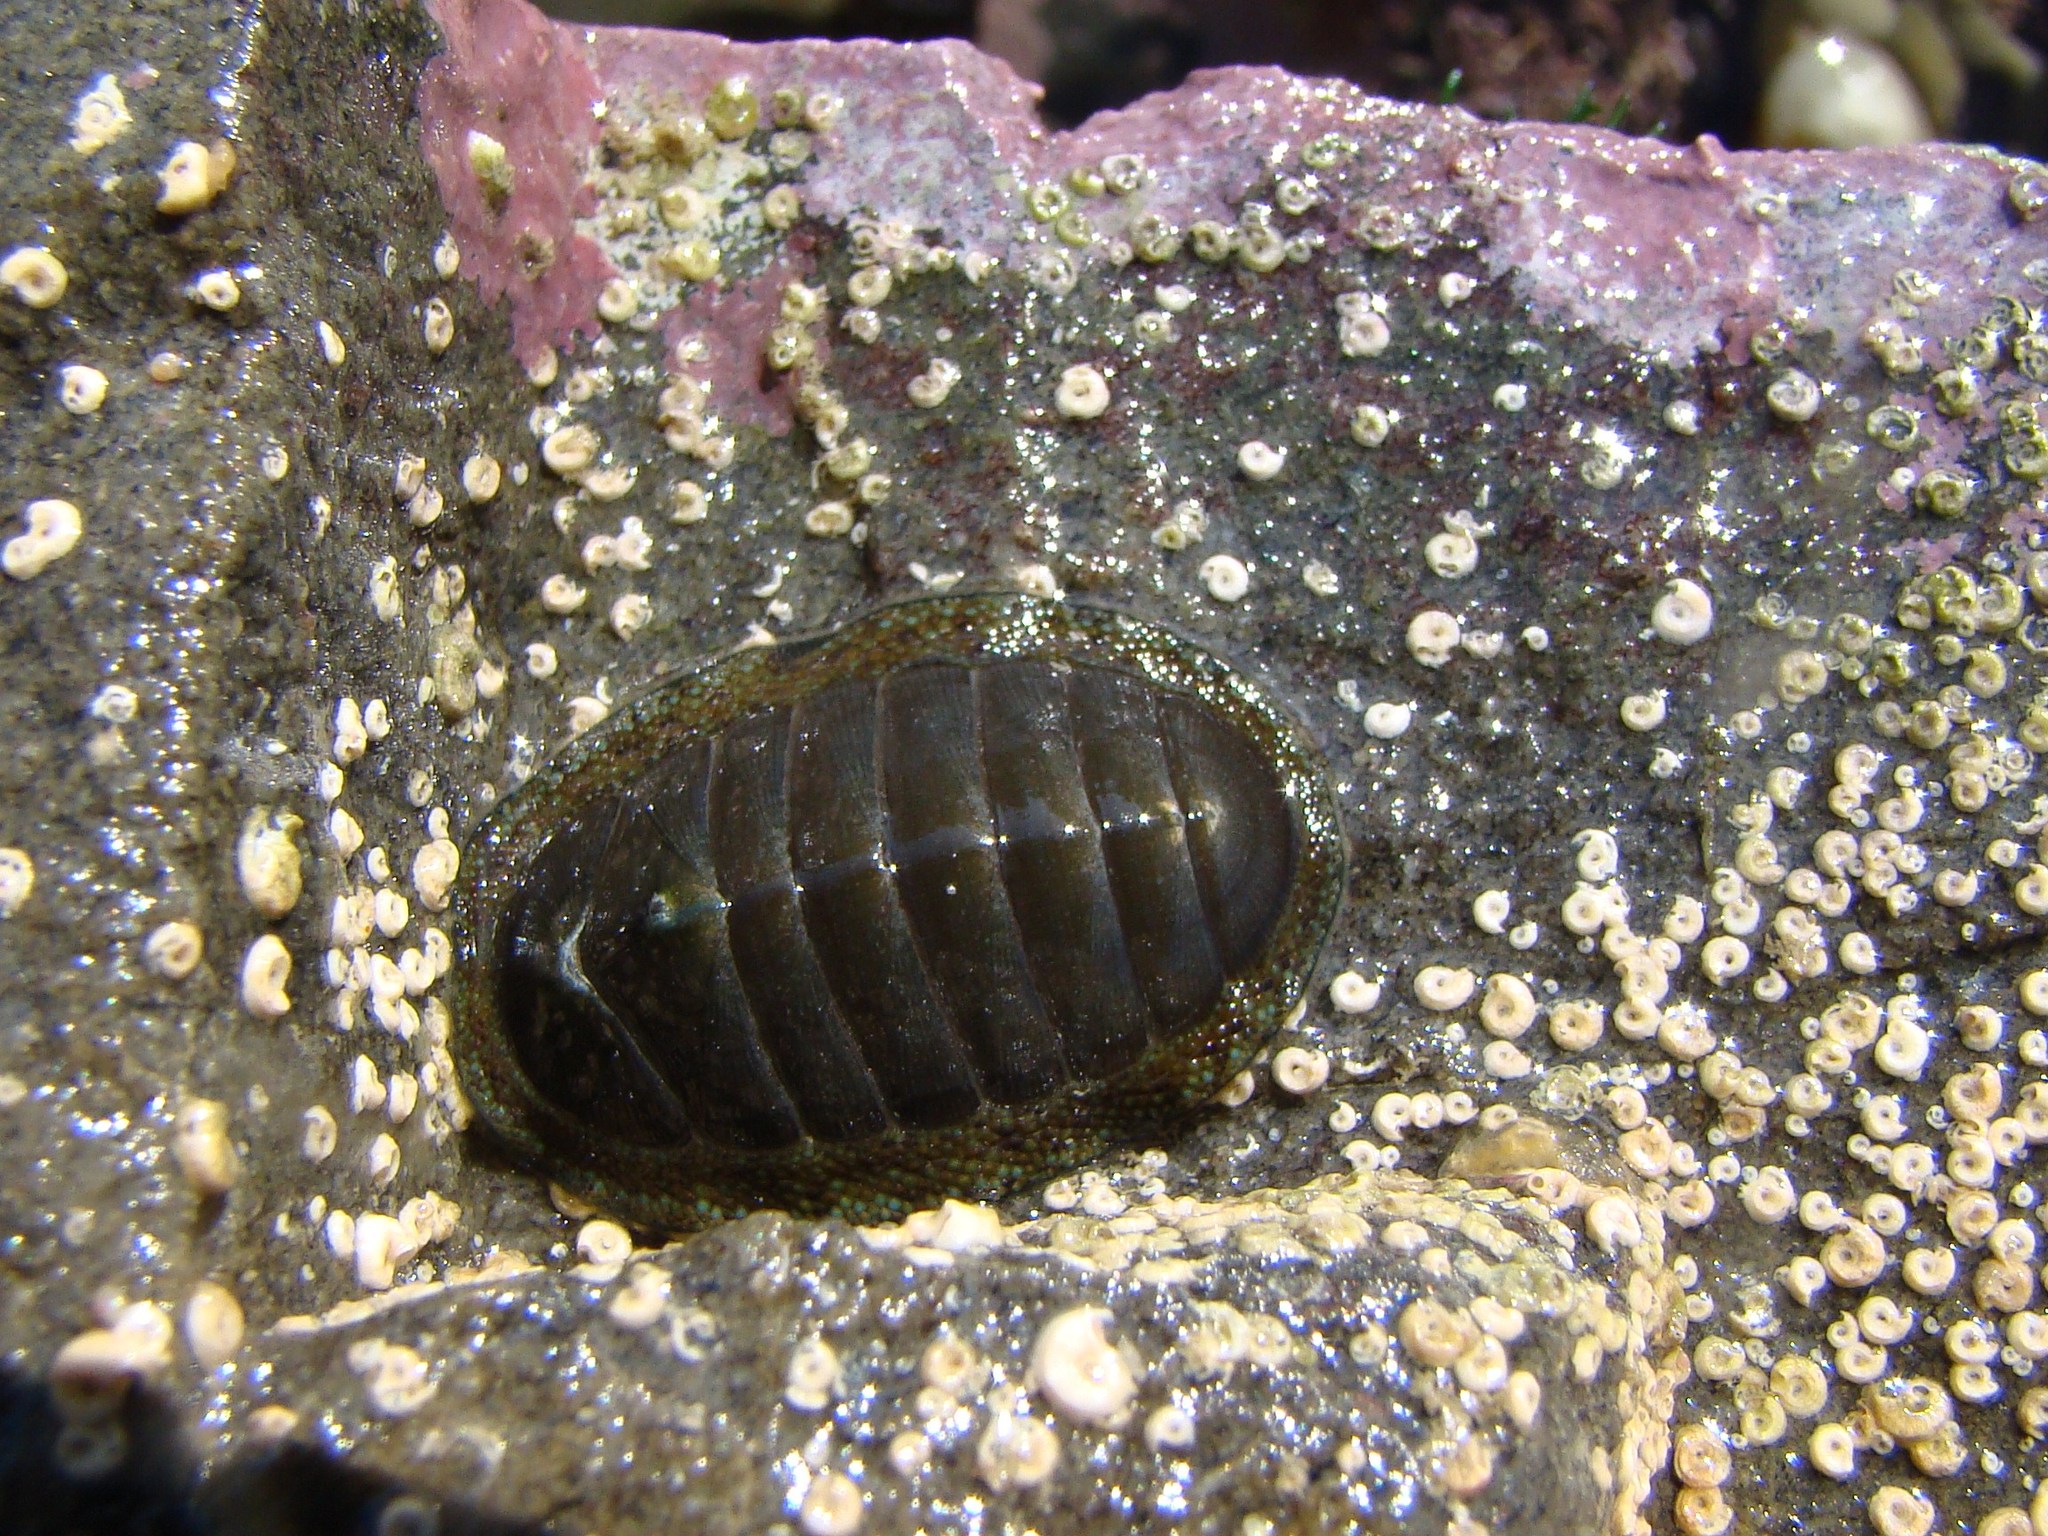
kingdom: Animalia
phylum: Mollusca
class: Polyplacophora
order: Chitonida
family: Chitonidae
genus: Chiton
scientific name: Chiton glaucus
